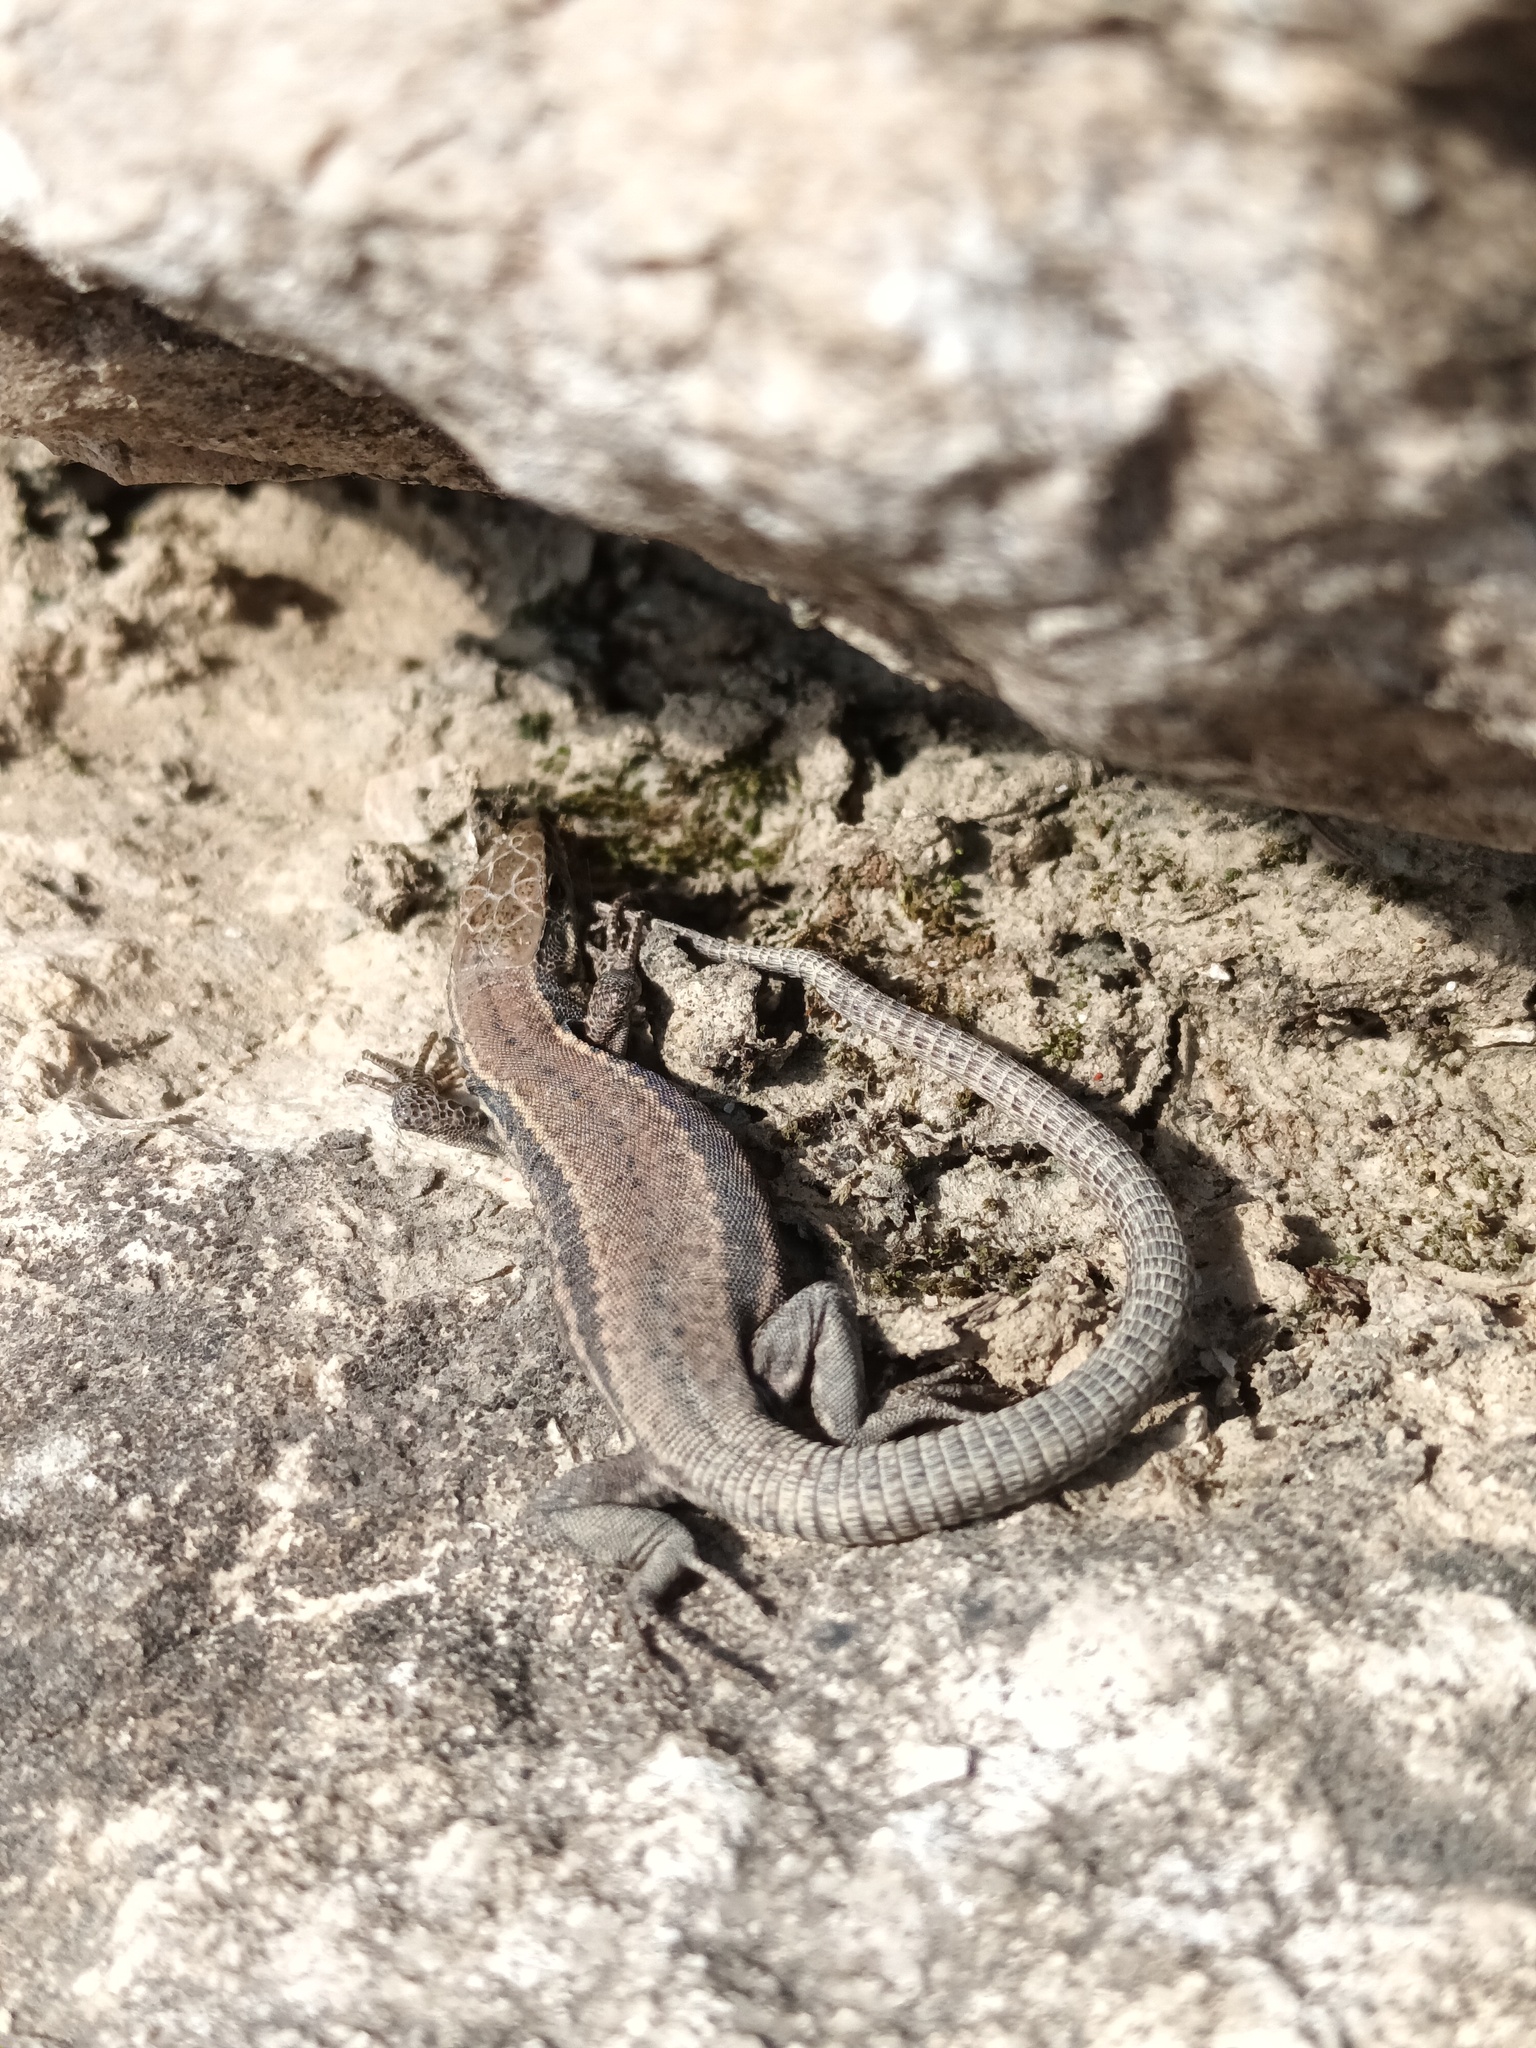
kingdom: Animalia
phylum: Chordata
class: Squamata
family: Lacertidae
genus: Podarcis
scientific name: Podarcis muralis
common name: Common wall lizard
